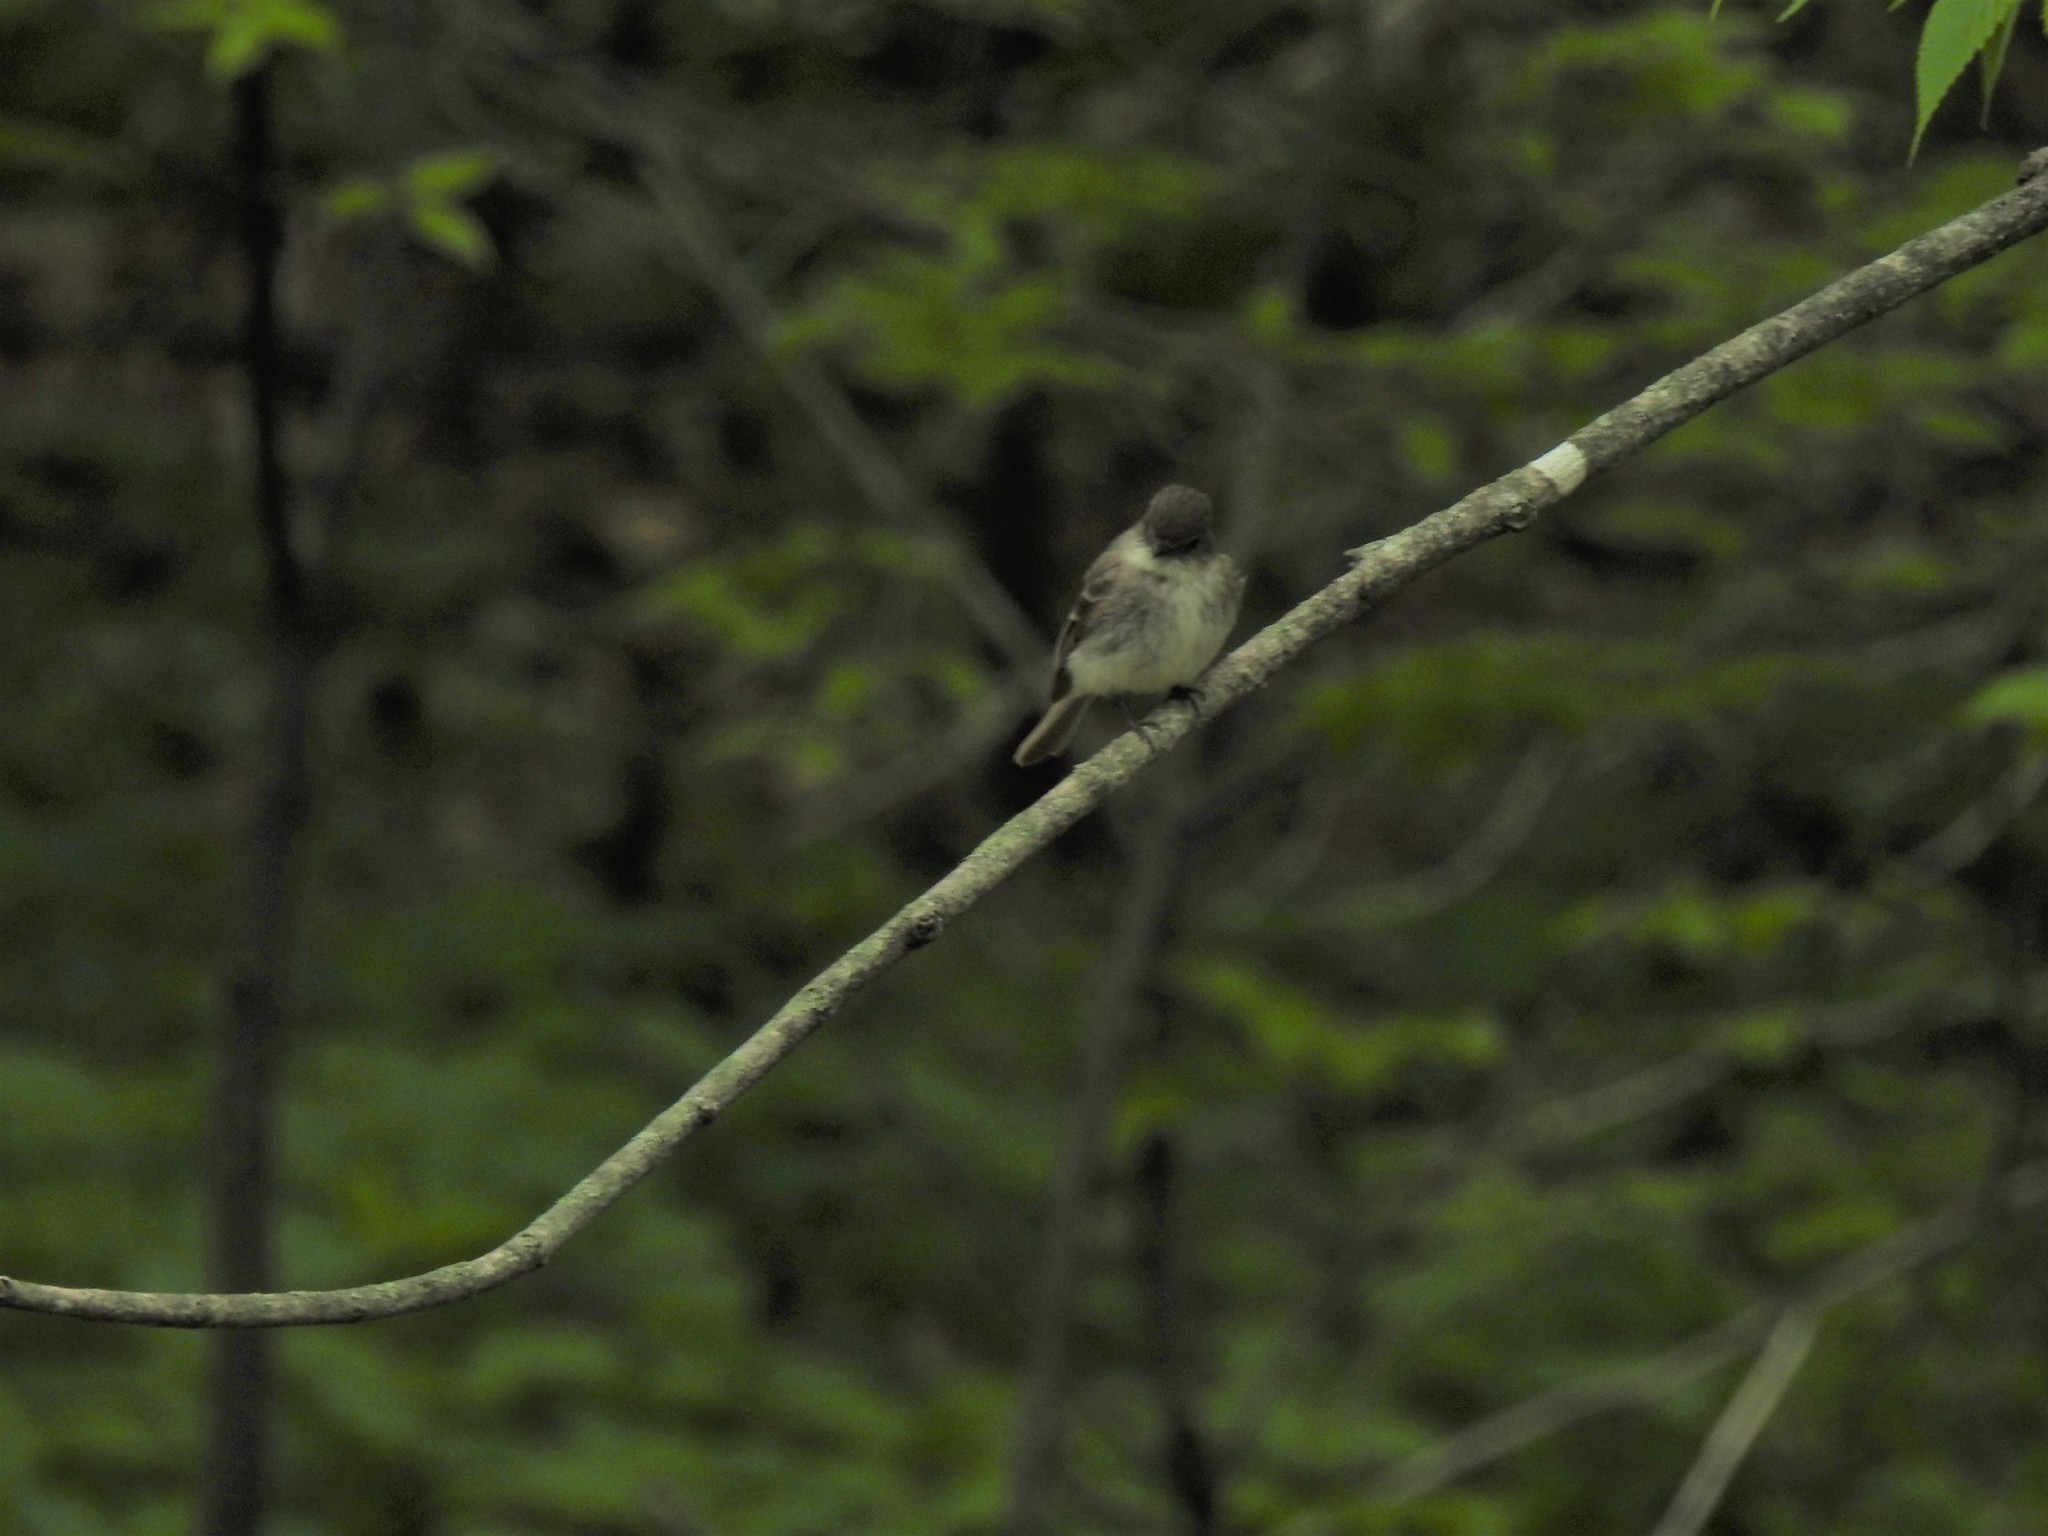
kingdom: Animalia
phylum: Chordata
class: Aves
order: Passeriformes
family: Tyrannidae
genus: Sayornis
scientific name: Sayornis phoebe
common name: Eastern phoebe
